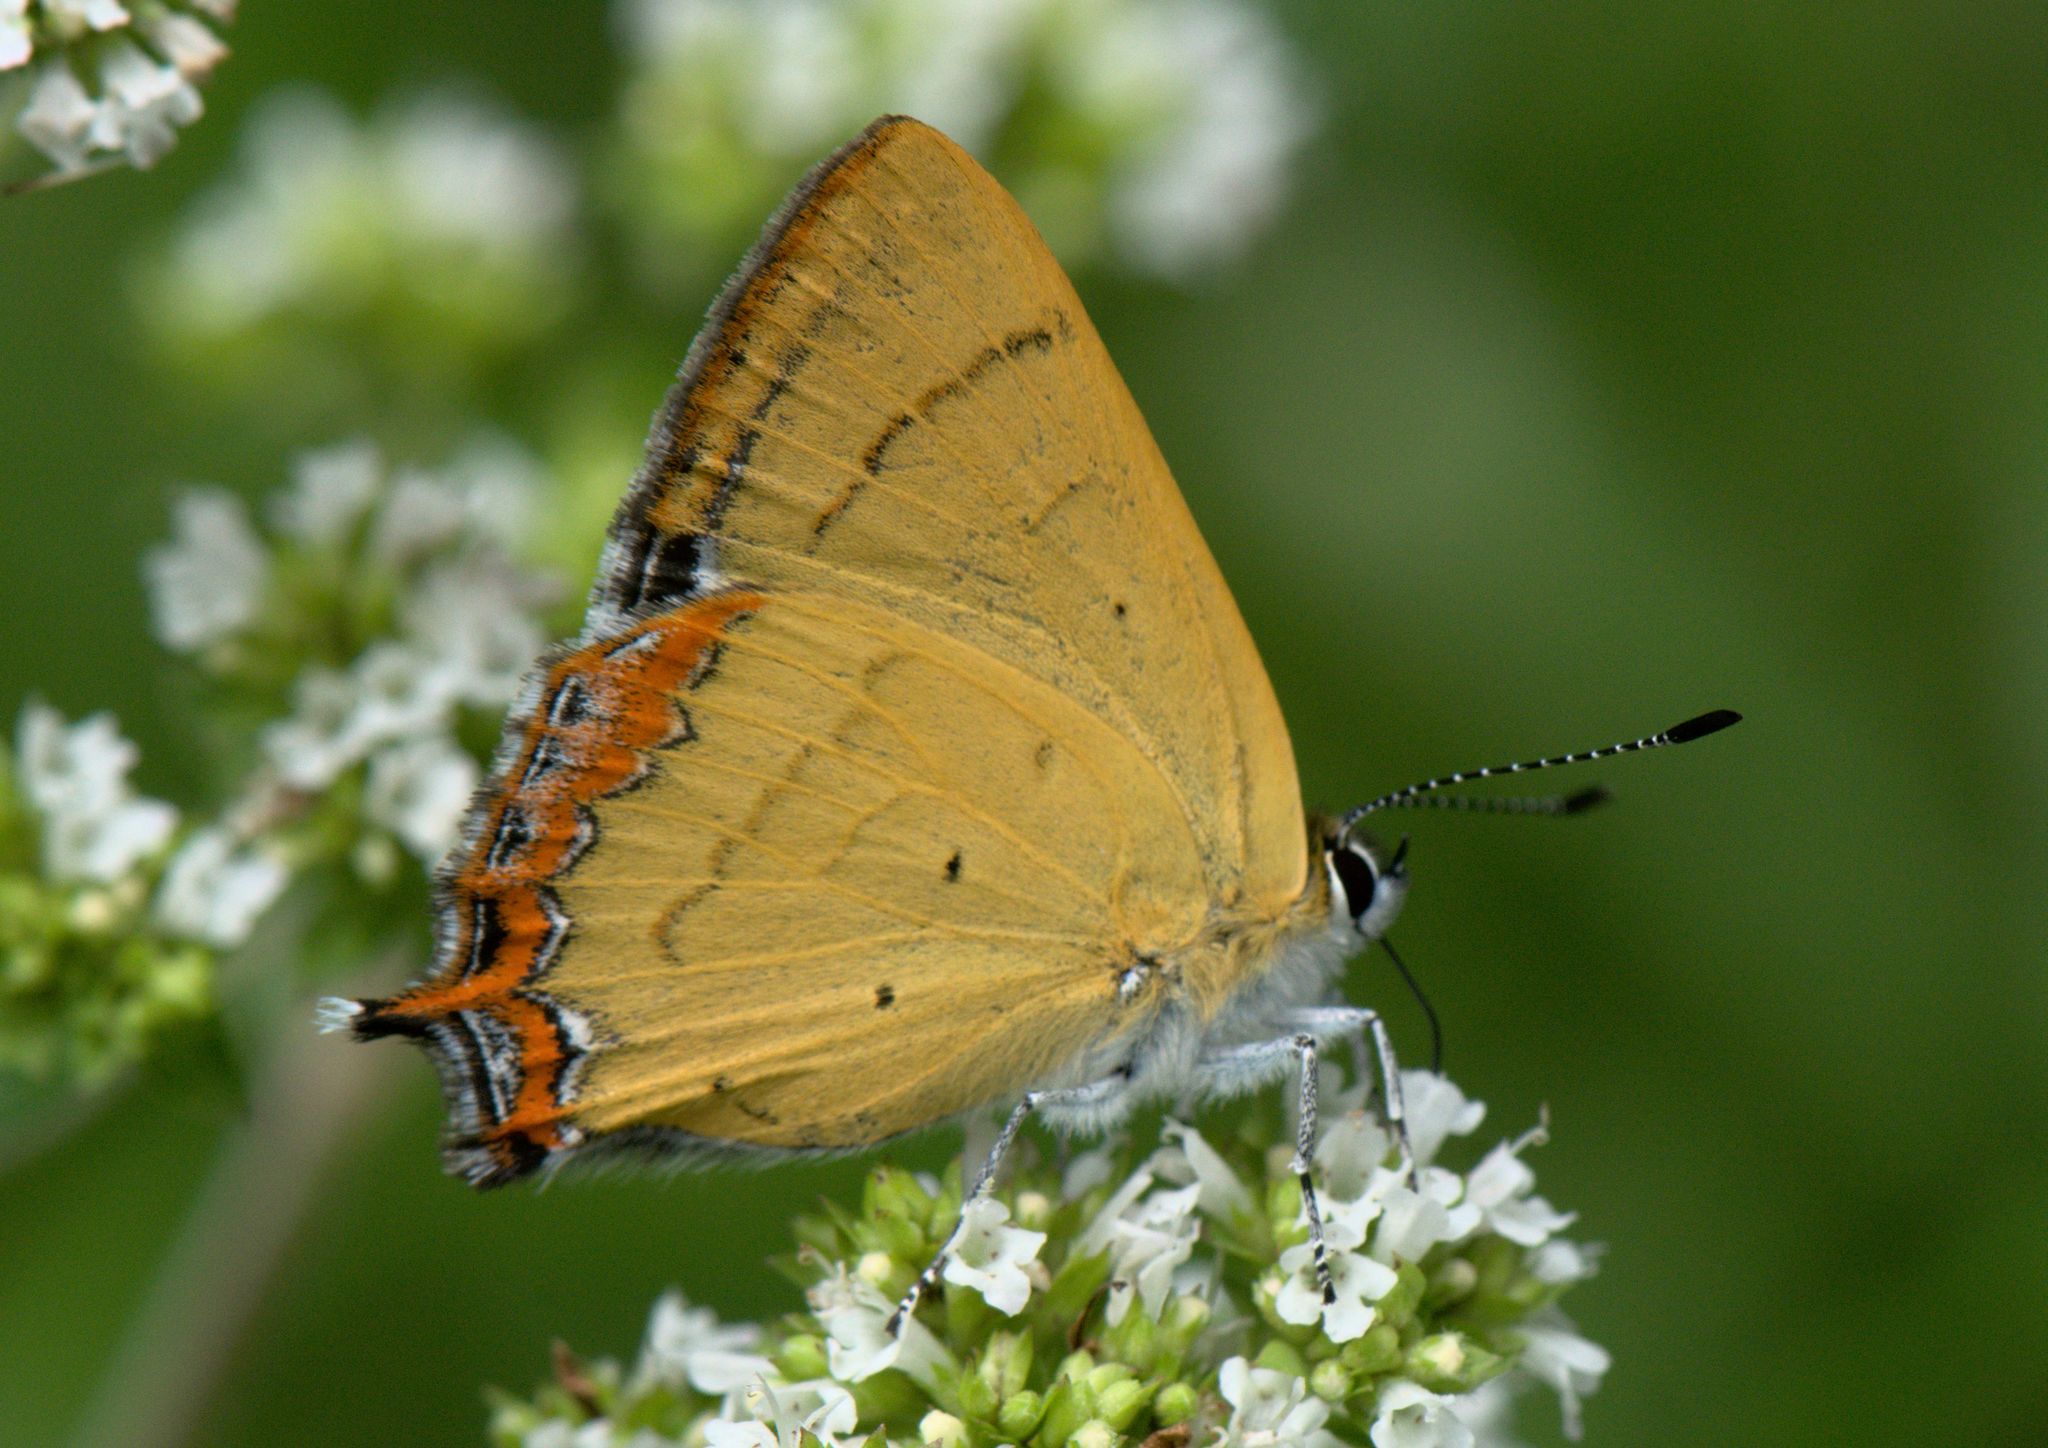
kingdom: Animalia
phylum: Arthropoda
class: Insecta
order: Lepidoptera
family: Lycaenidae
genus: Heliophorus
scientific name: Heliophorus
